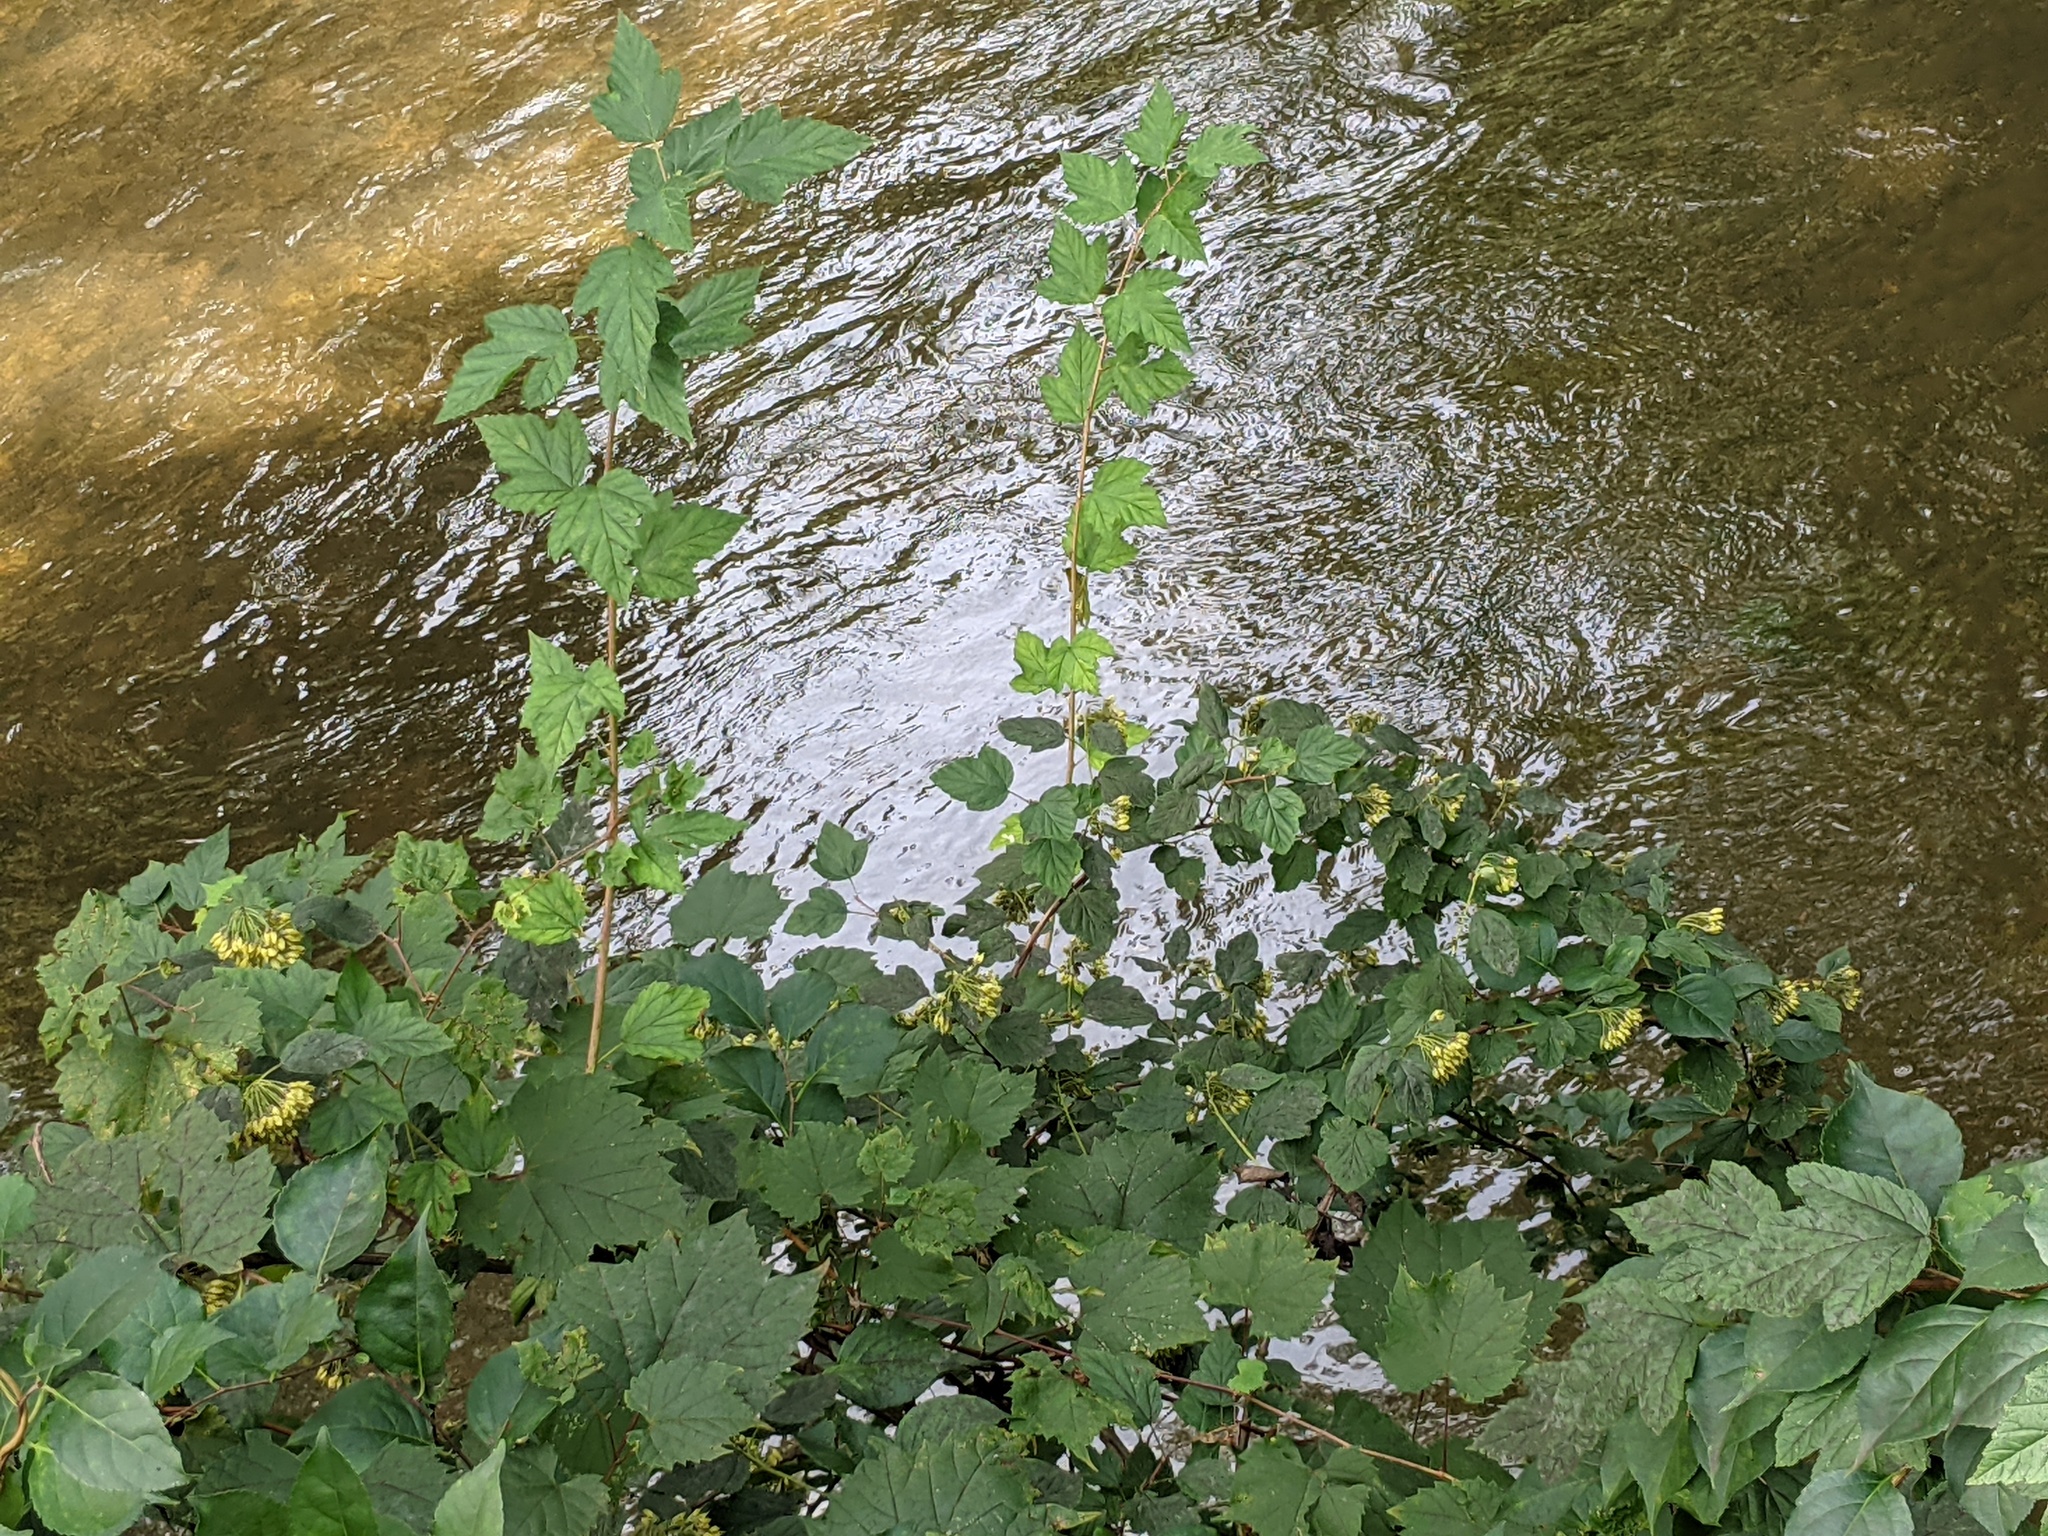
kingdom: Plantae
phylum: Tracheophyta
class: Magnoliopsida
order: Rosales
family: Rosaceae
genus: Physocarpus
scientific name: Physocarpus opulifolius
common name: Ninebark
